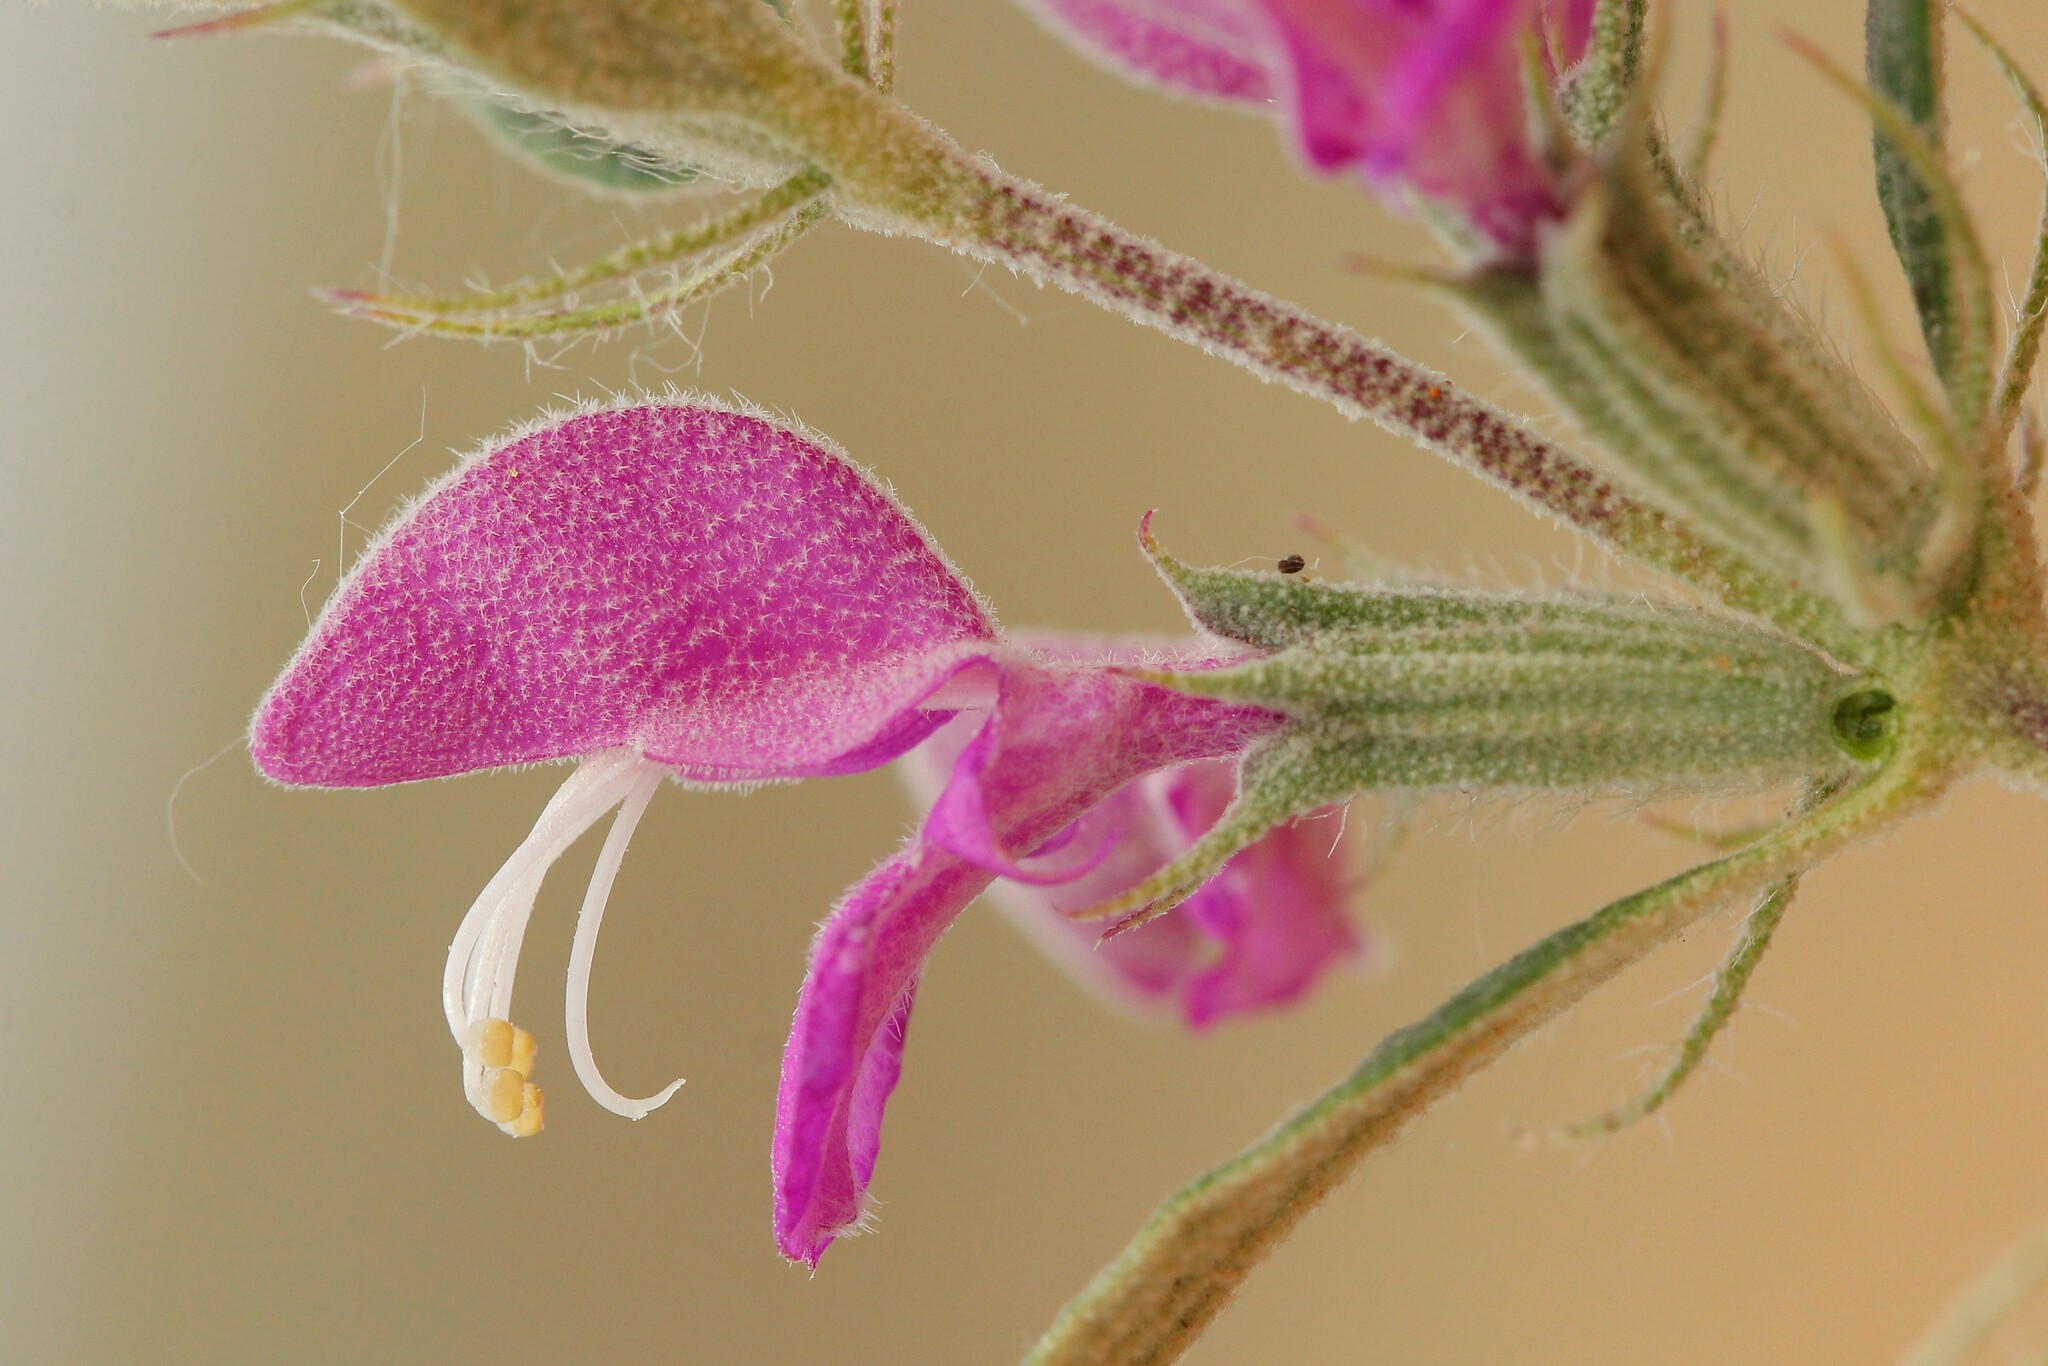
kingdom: Plantae
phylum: Tracheophyta
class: Magnoliopsida
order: Lamiales
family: Lamiaceae
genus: Phlomis
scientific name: Phlomis herba-venti
